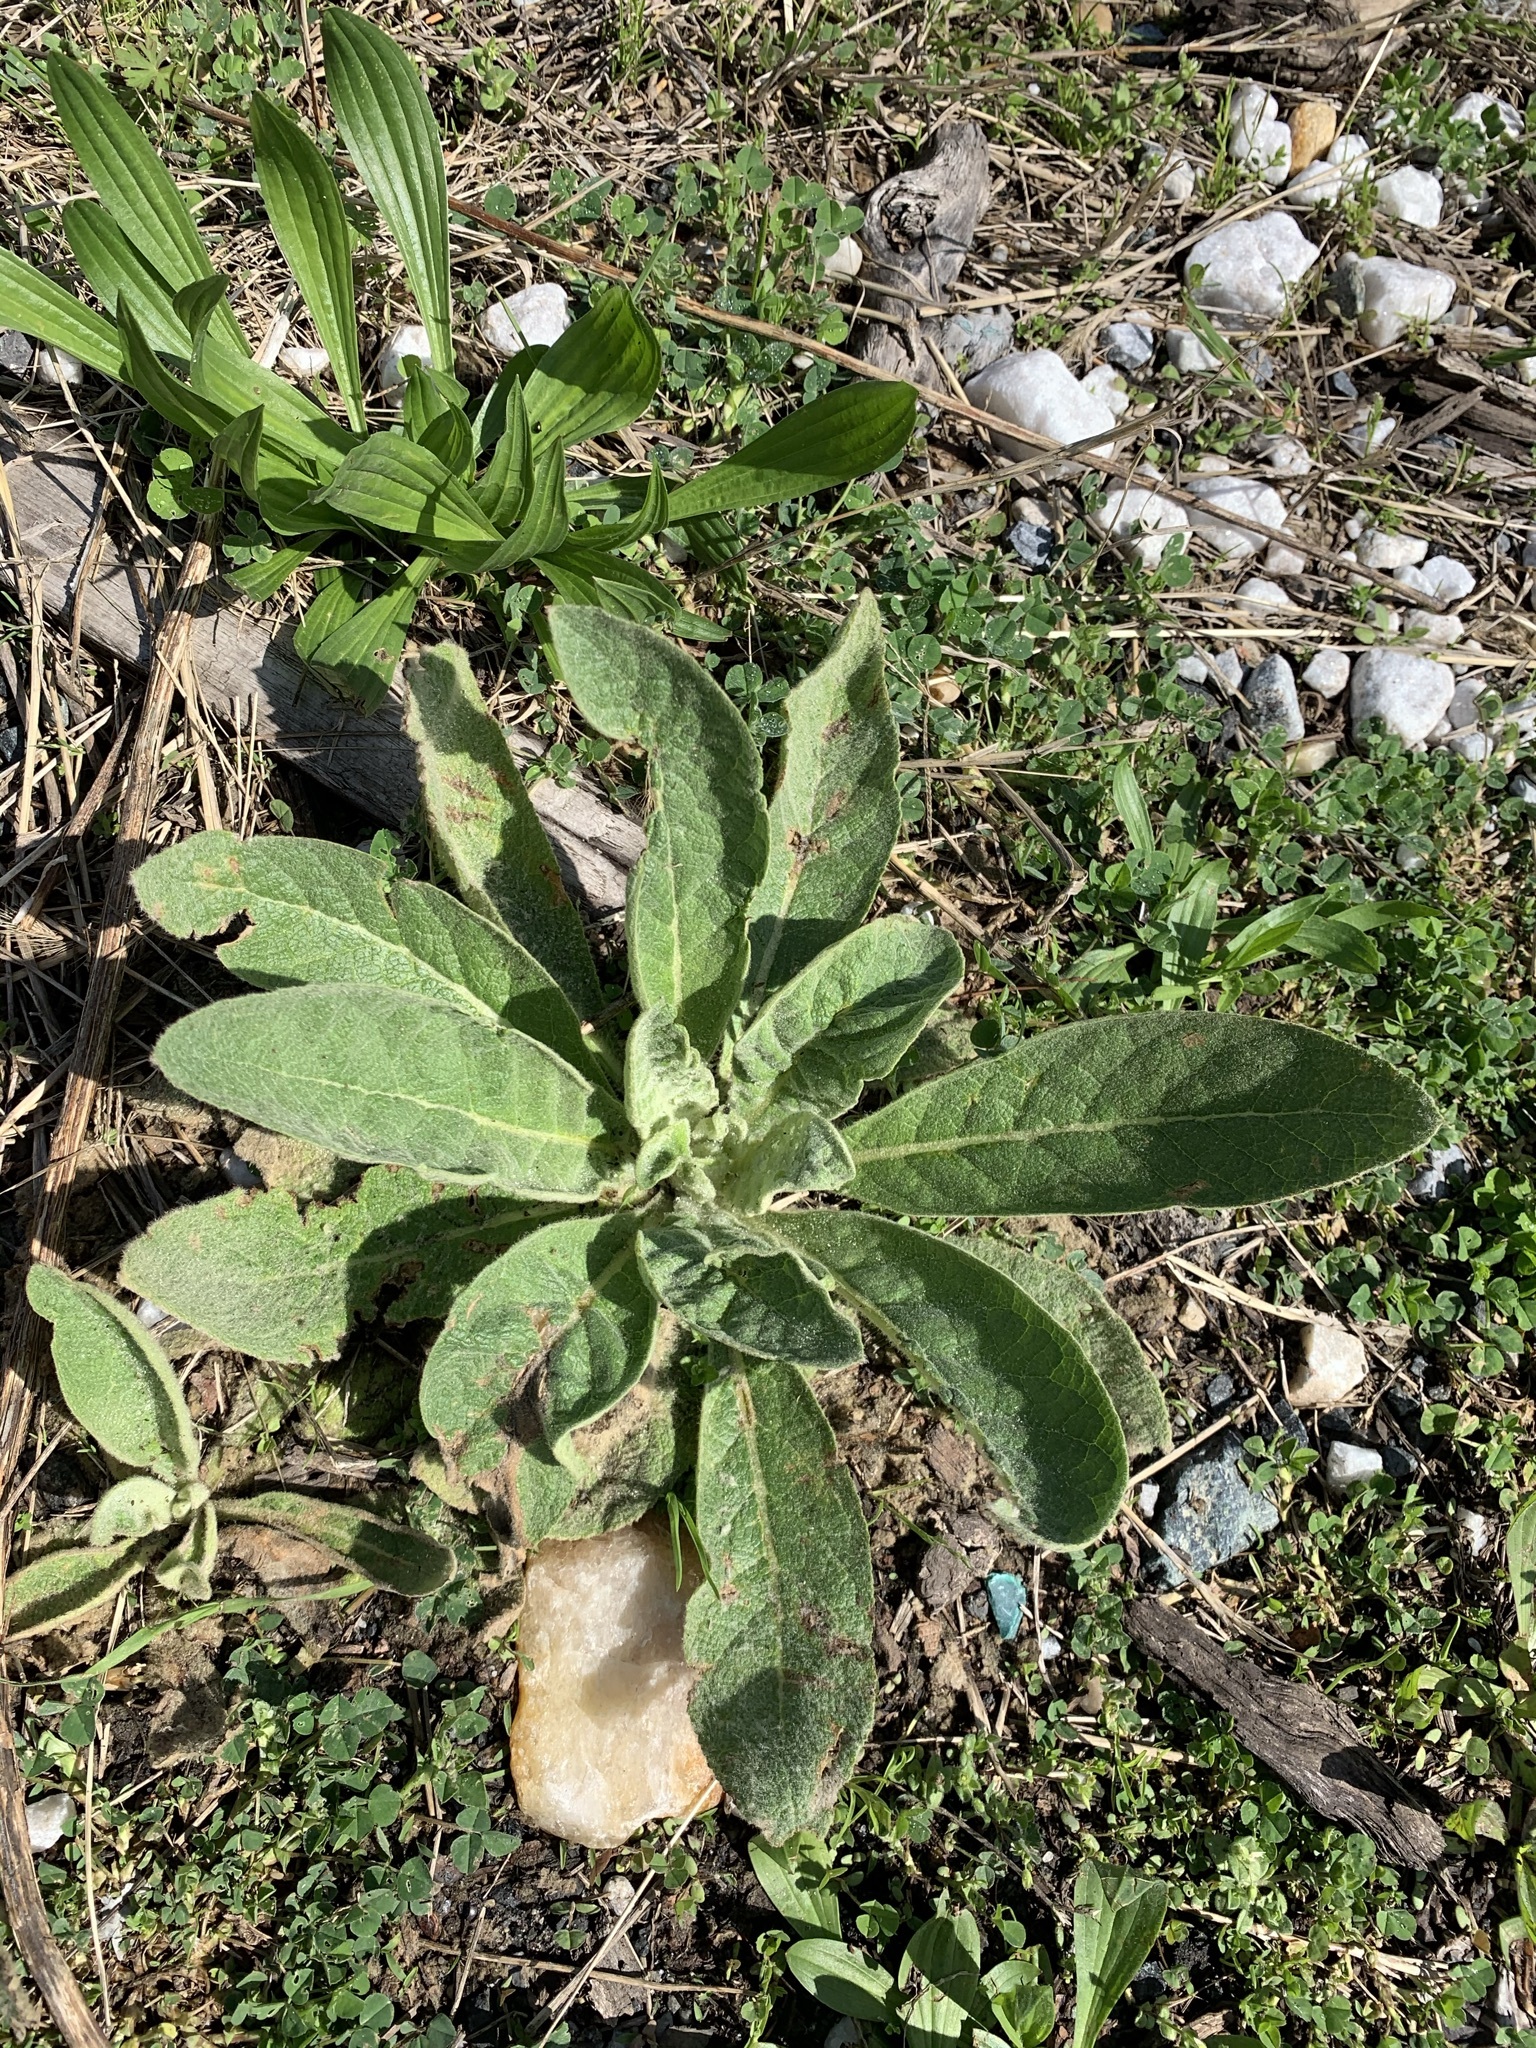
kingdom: Plantae
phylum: Tracheophyta
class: Magnoliopsida
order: Lamiales
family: Scrophulariaceae
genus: Verbascum
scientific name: Verbascum thapsus
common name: Common mullein
